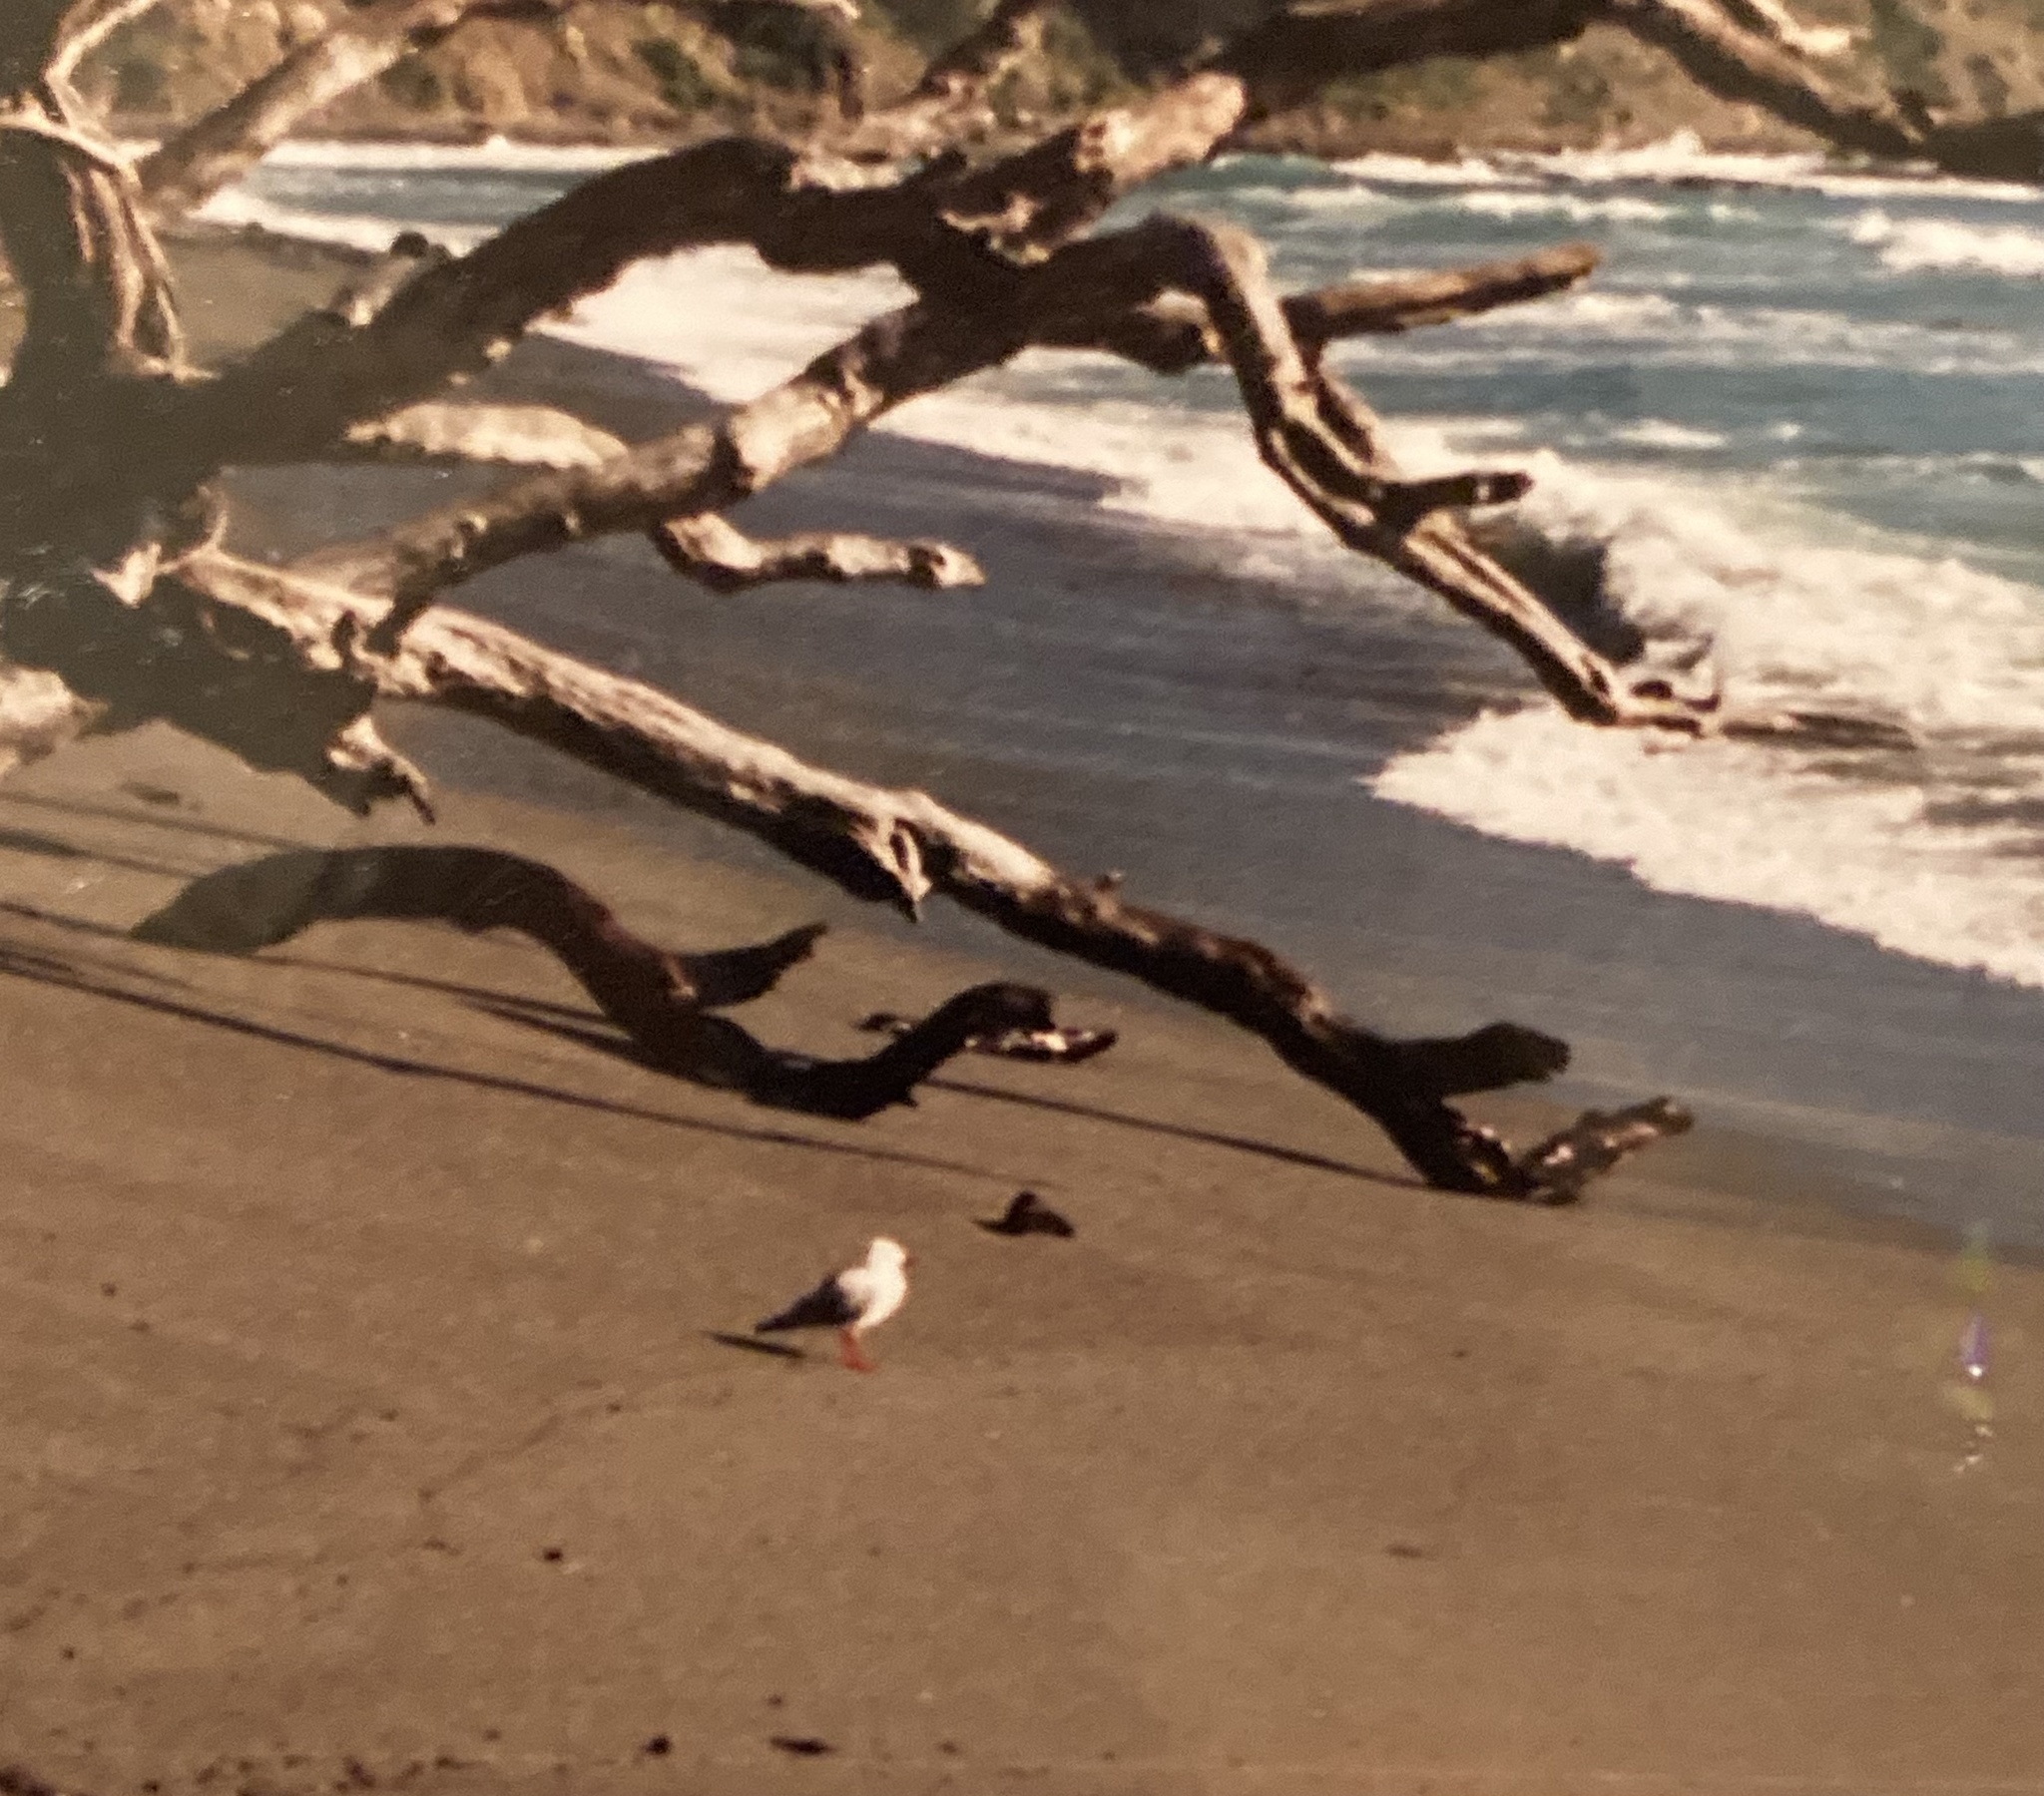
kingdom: Animalia
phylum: Chordata
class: Aves
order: Charadriiformes
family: Laridae
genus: Chroicocephalus
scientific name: Chroicocephalus novaehollandiae
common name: Silver gull
